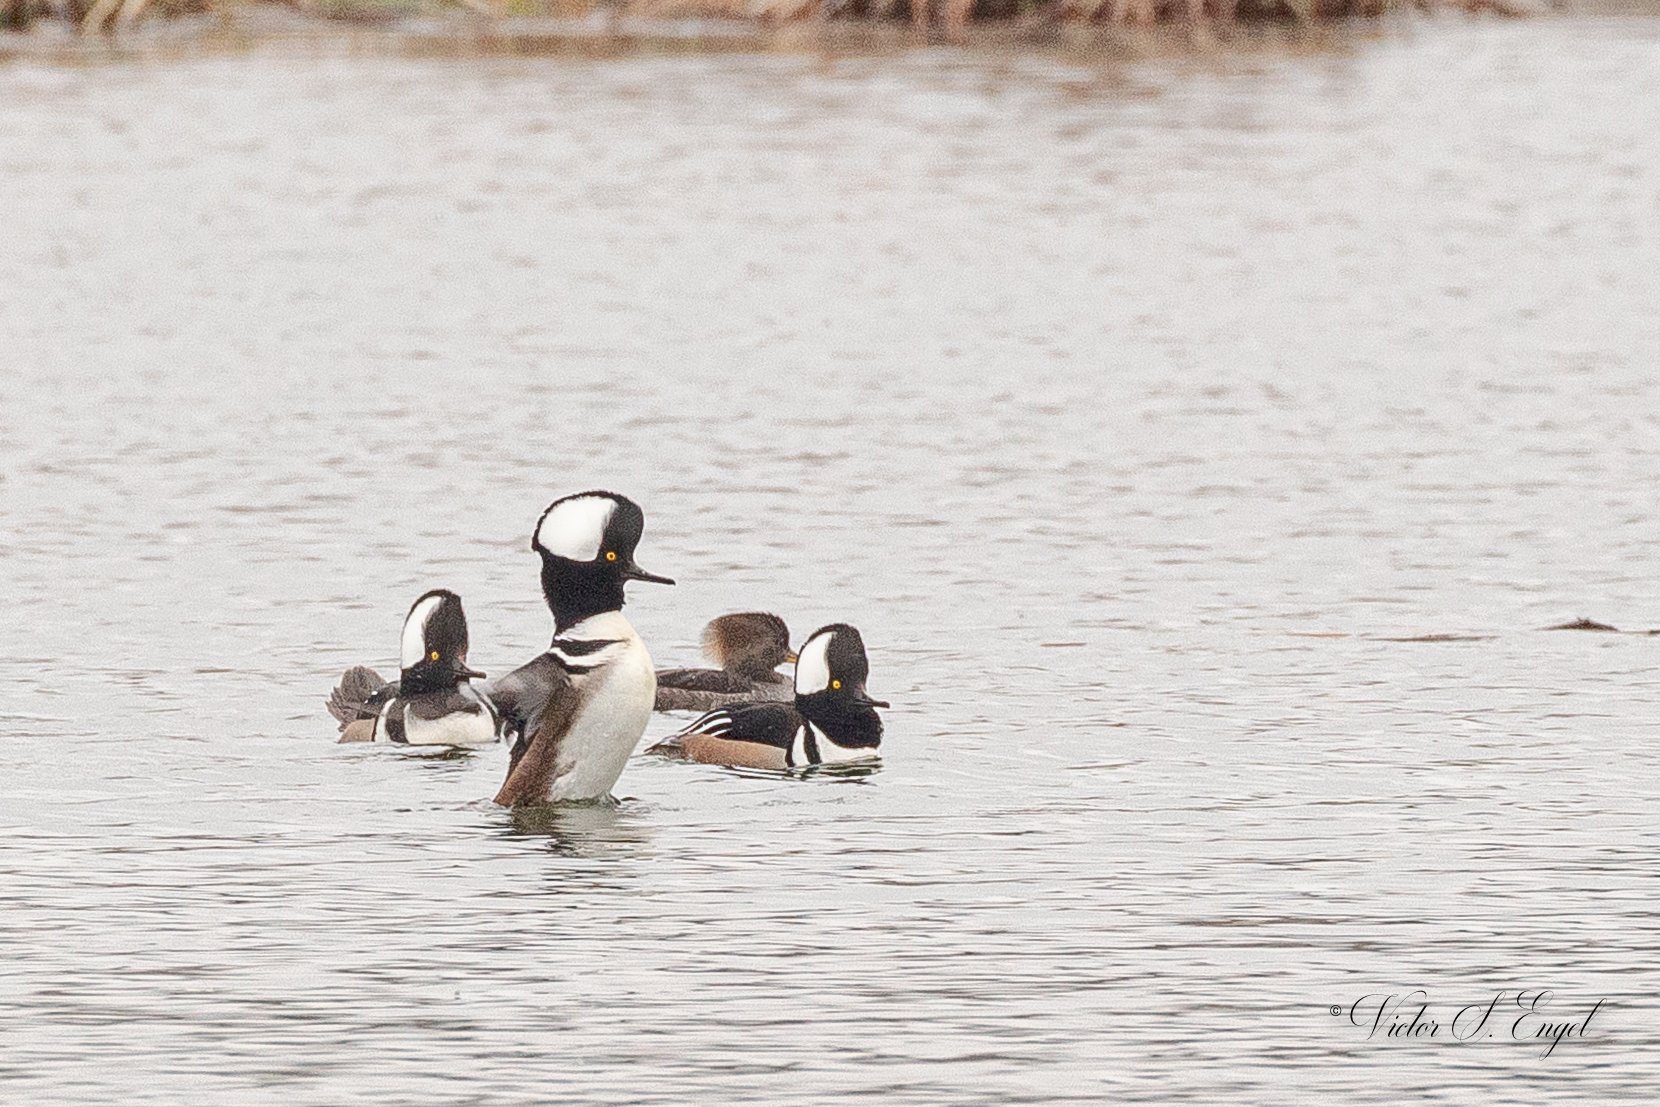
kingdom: Animalia
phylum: Chordata
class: Aves
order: Anseriformes
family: Anatidae
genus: Lophodytes
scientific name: Lophodytes cucullatus
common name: Hooded merganser
